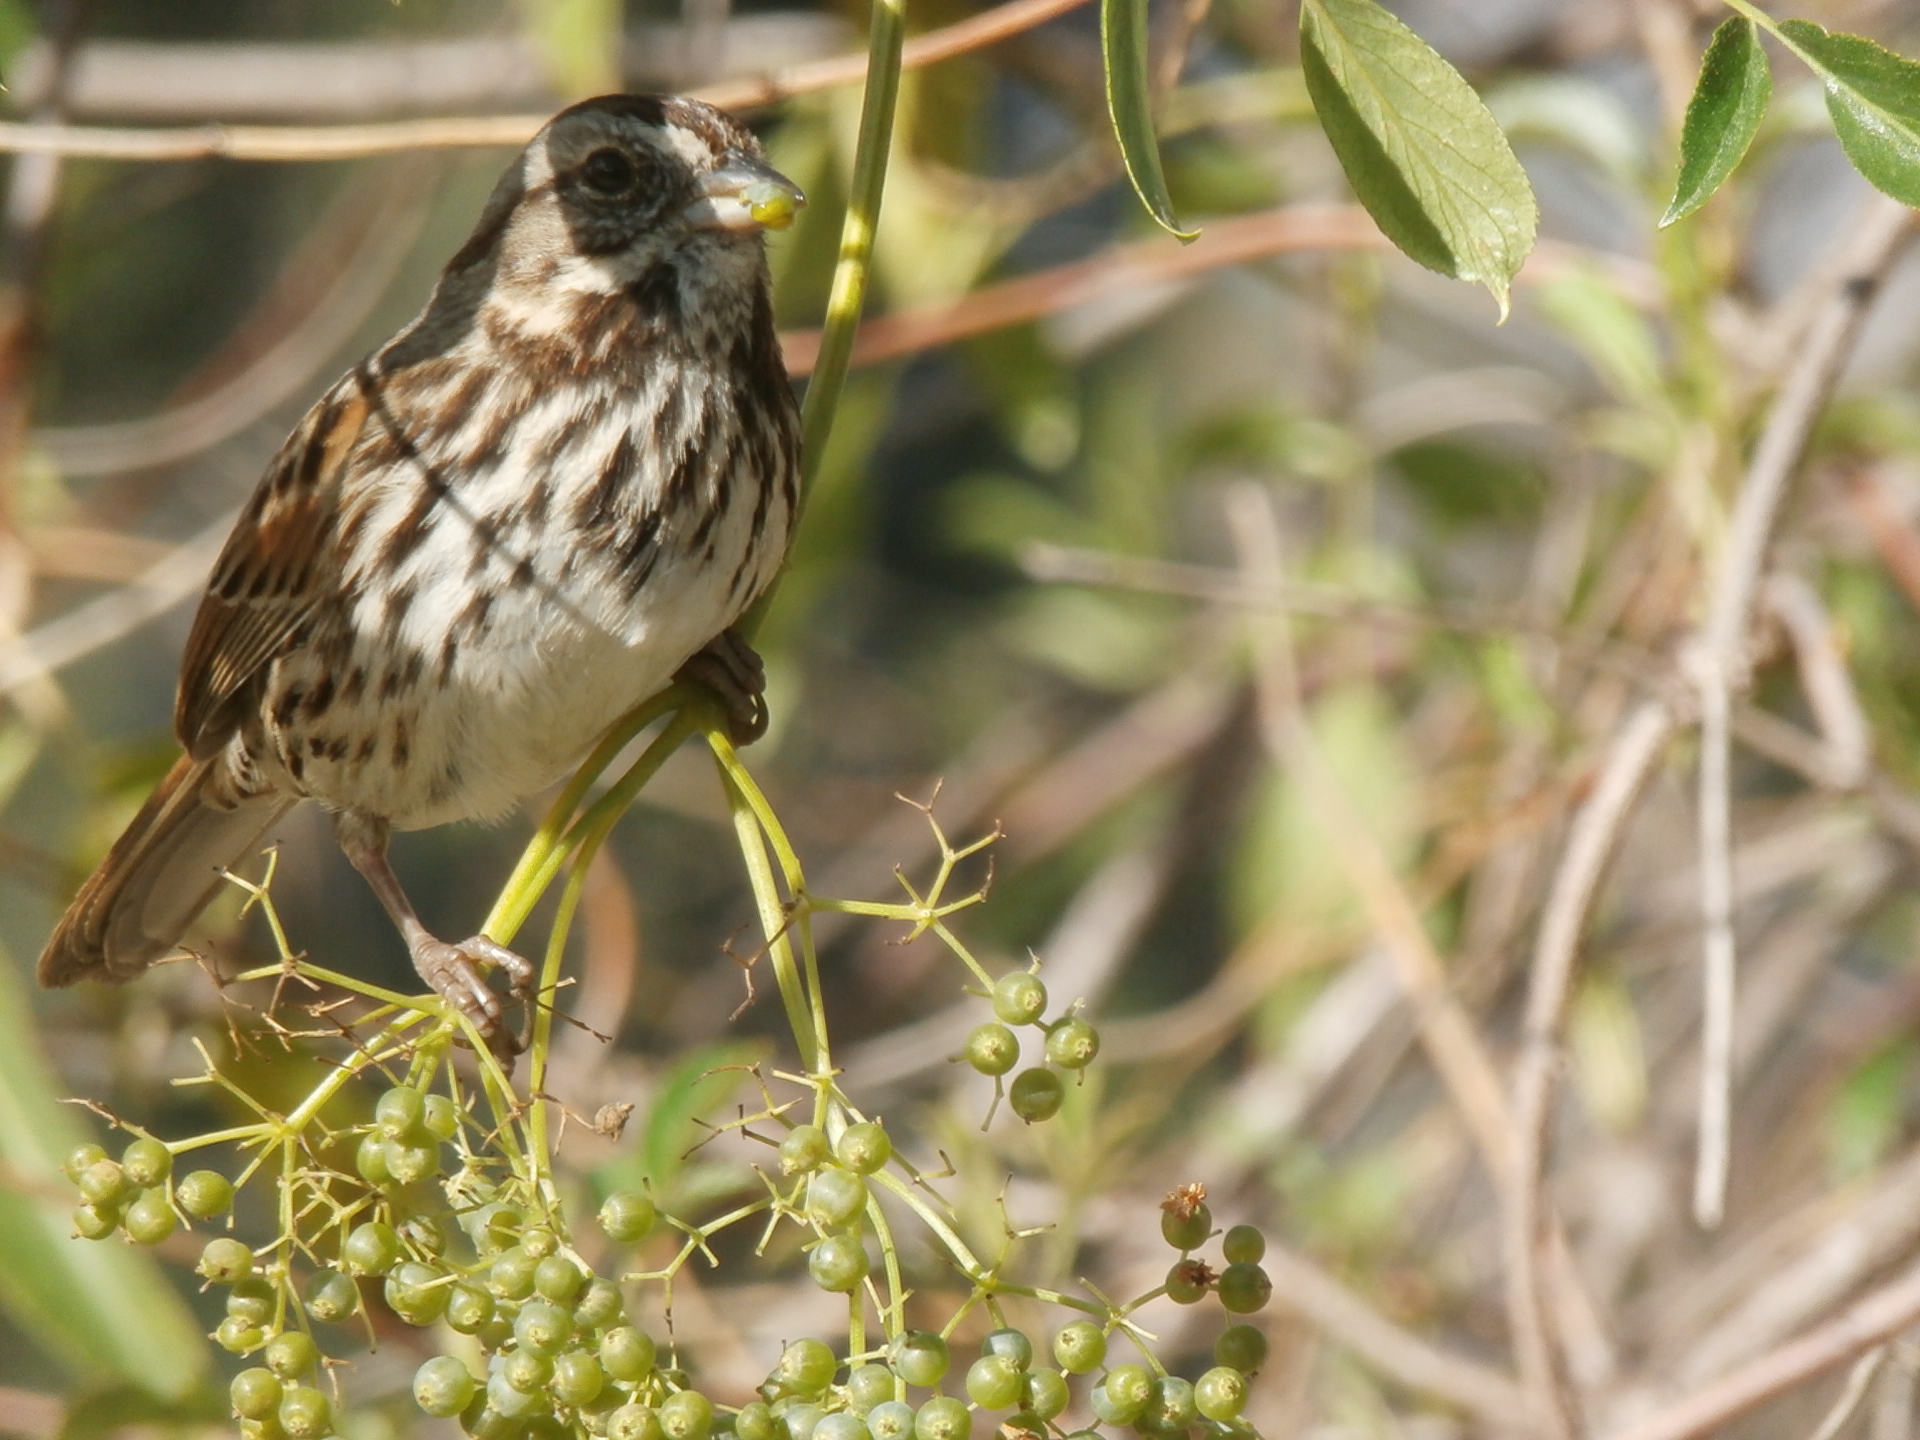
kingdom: Animalia
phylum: Chordata
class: Aves
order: Passeriformes
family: Passerellidae
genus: Melospiza
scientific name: Melospiza melodia
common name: Song sparrow
